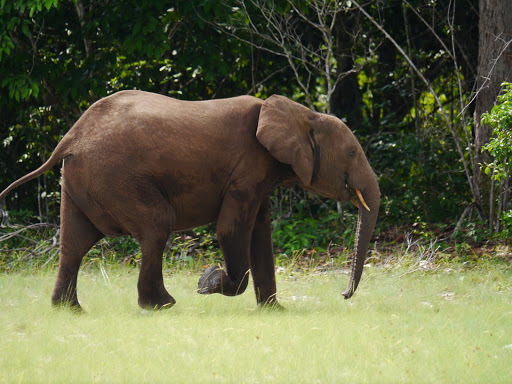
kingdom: Animalia
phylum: Chordata
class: Mammalia
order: Proboscidea
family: Elephantidae
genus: Loxodonta
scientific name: Loxodonta cyclotis
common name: African forest elephant
